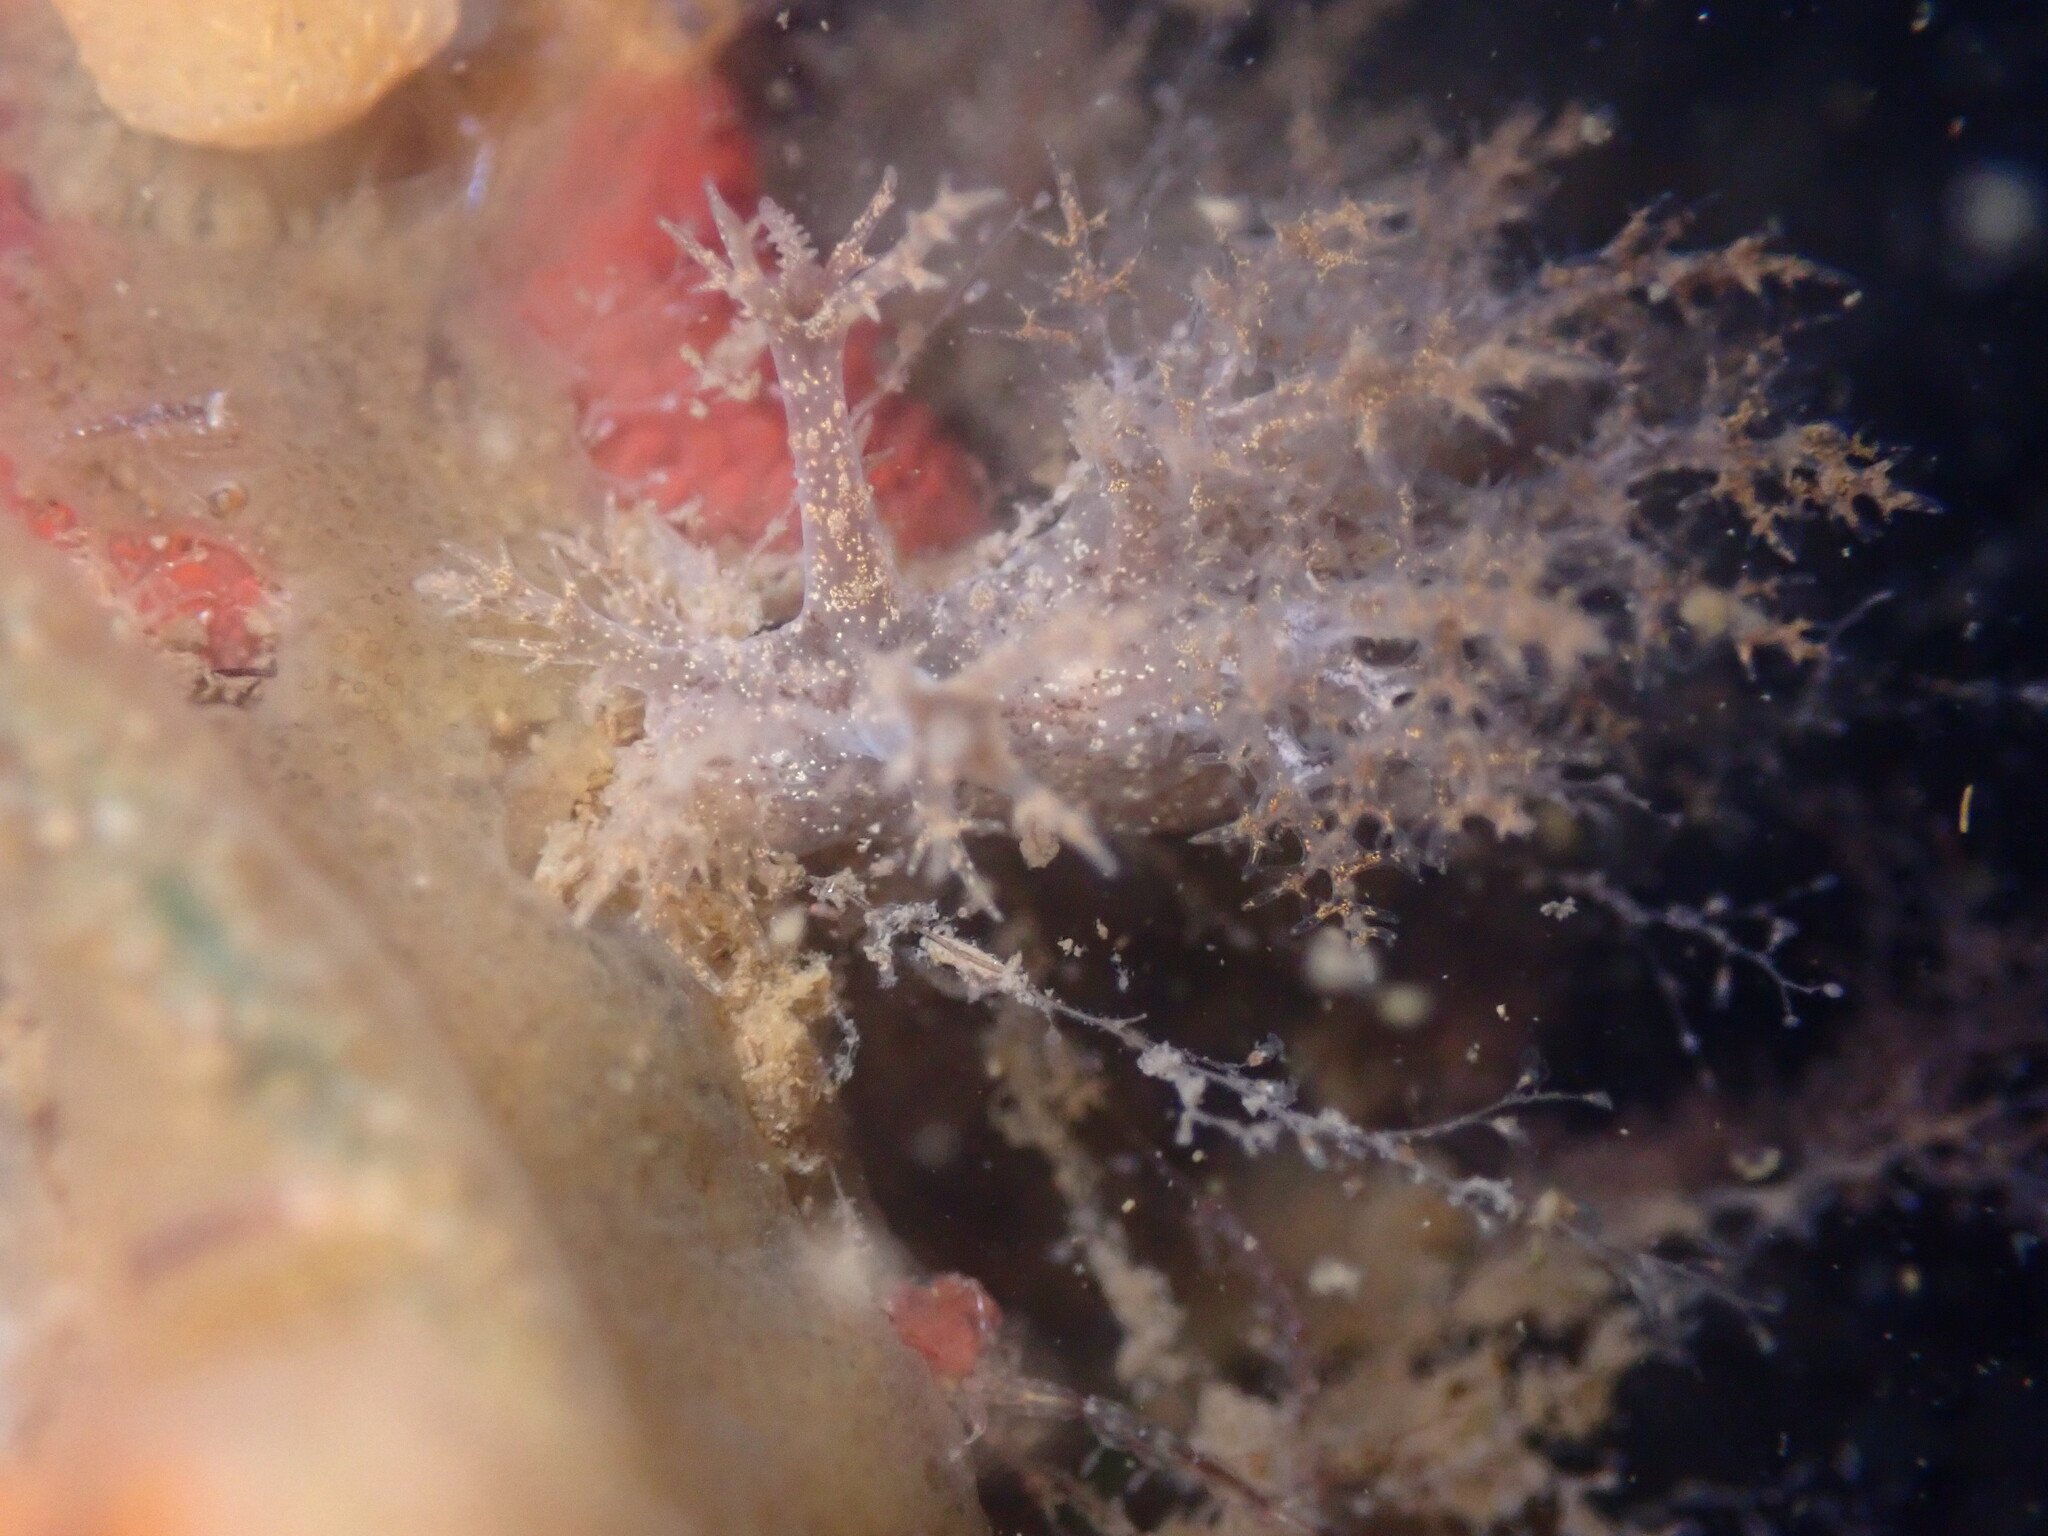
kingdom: Animalia
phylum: Mollusca
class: Gastropoda
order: Nudibranchia
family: Dendronotidae
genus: Dendronotus
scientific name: Dendronotus venustus
